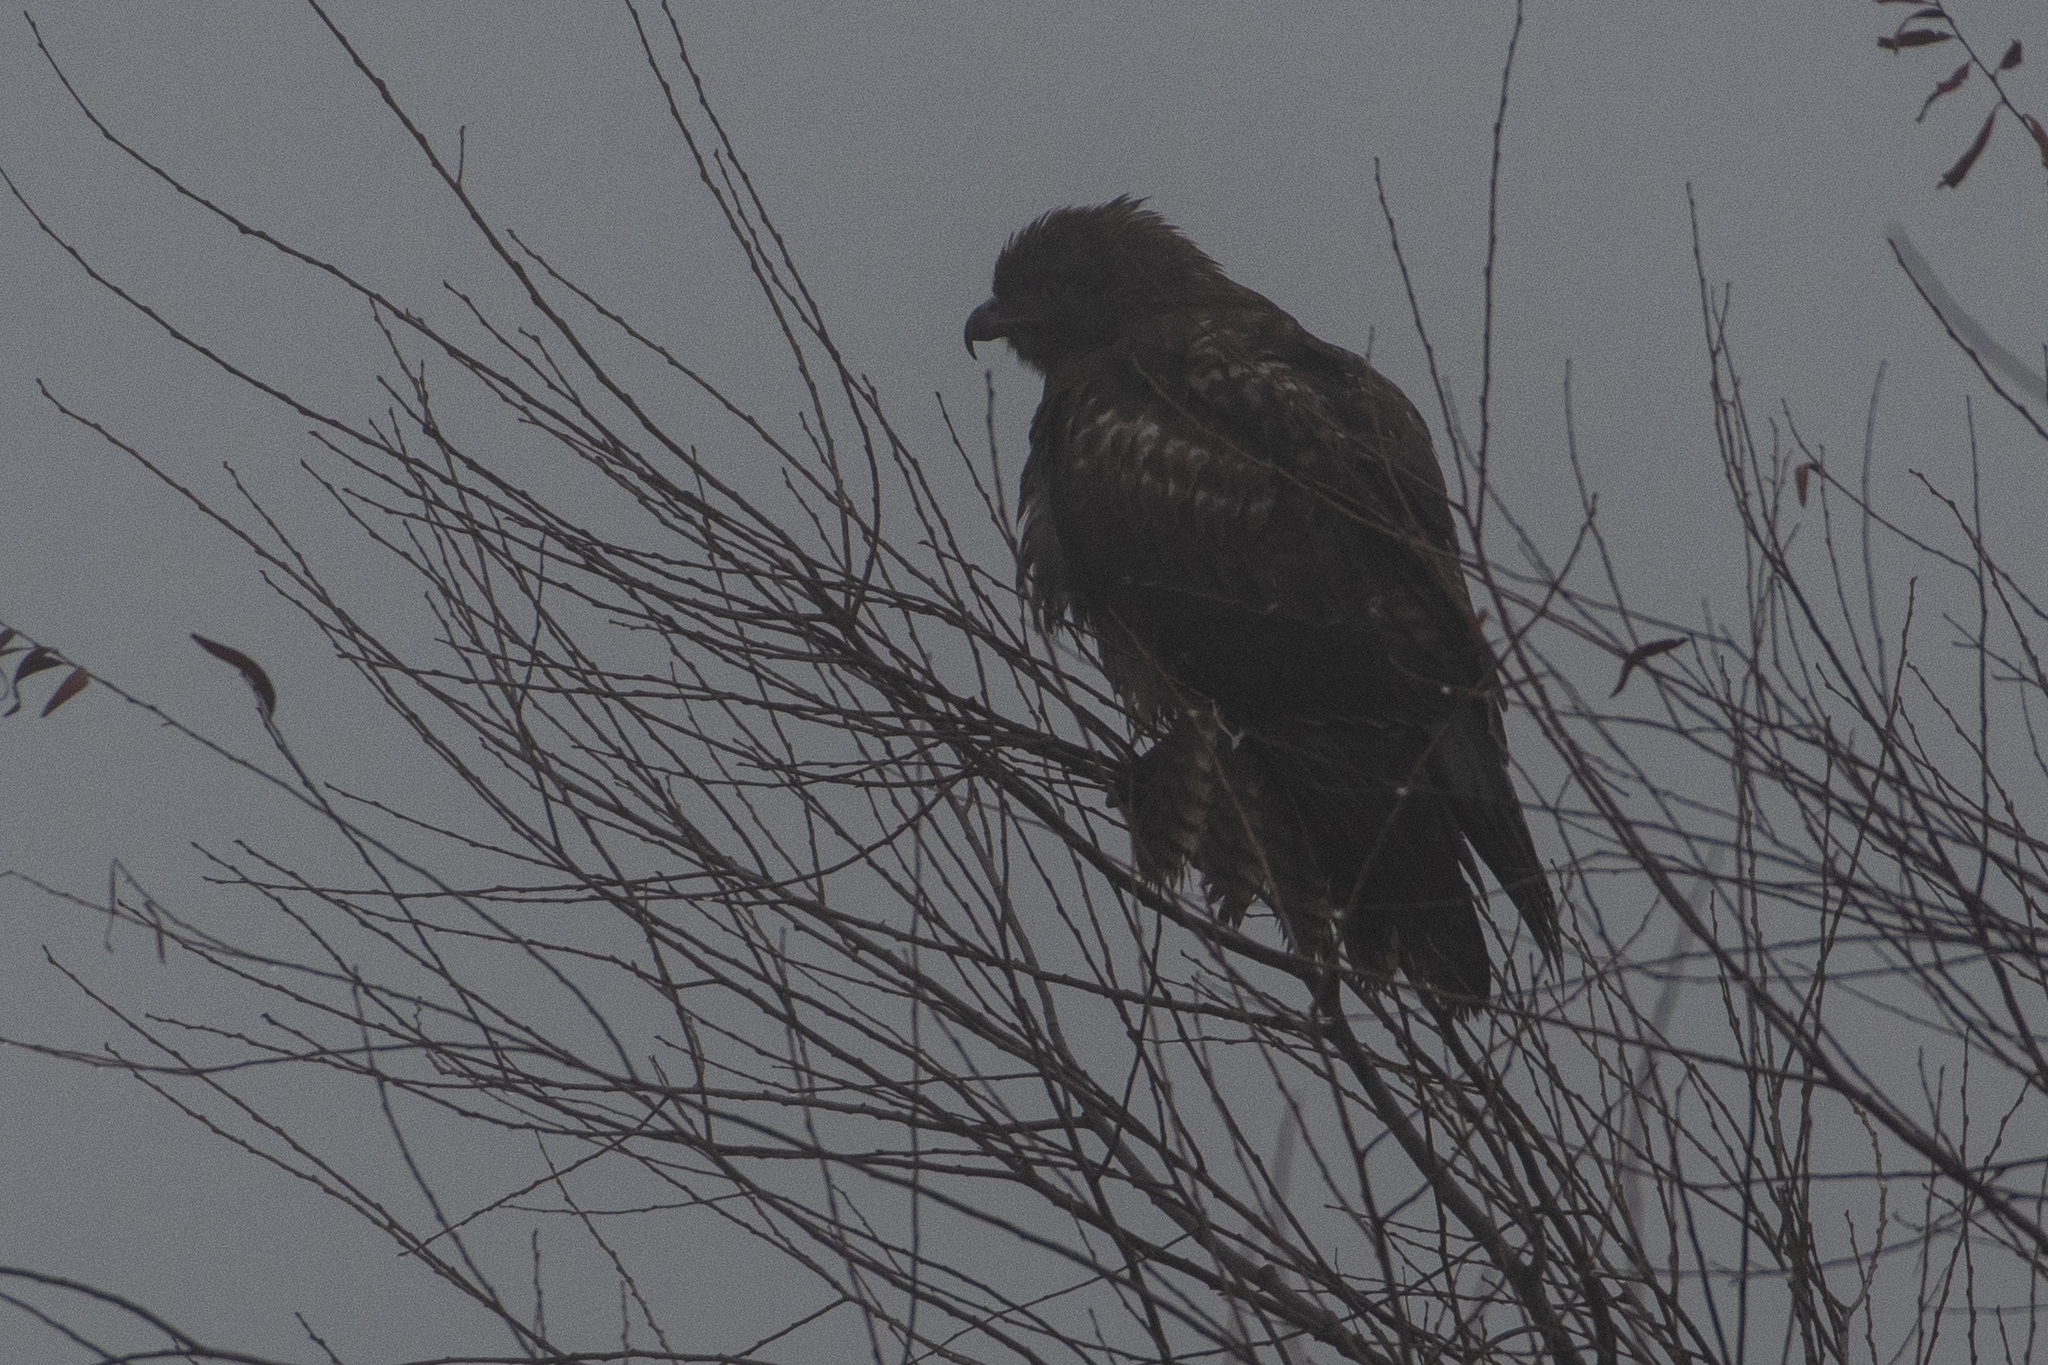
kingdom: Animalia
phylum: Chordata
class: Aves
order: Accipitriformes
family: Accipitridae
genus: Buteo
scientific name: Buteo jamaicensis
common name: Red-tailed hawk
